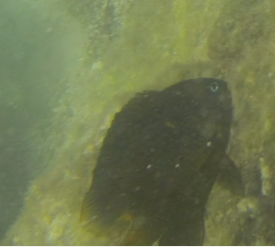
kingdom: Animalia
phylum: Chordata
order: Perciformes
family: Pomacentridae
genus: Stegastes
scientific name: Stegastes arcifrons
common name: Galapagos gregory
